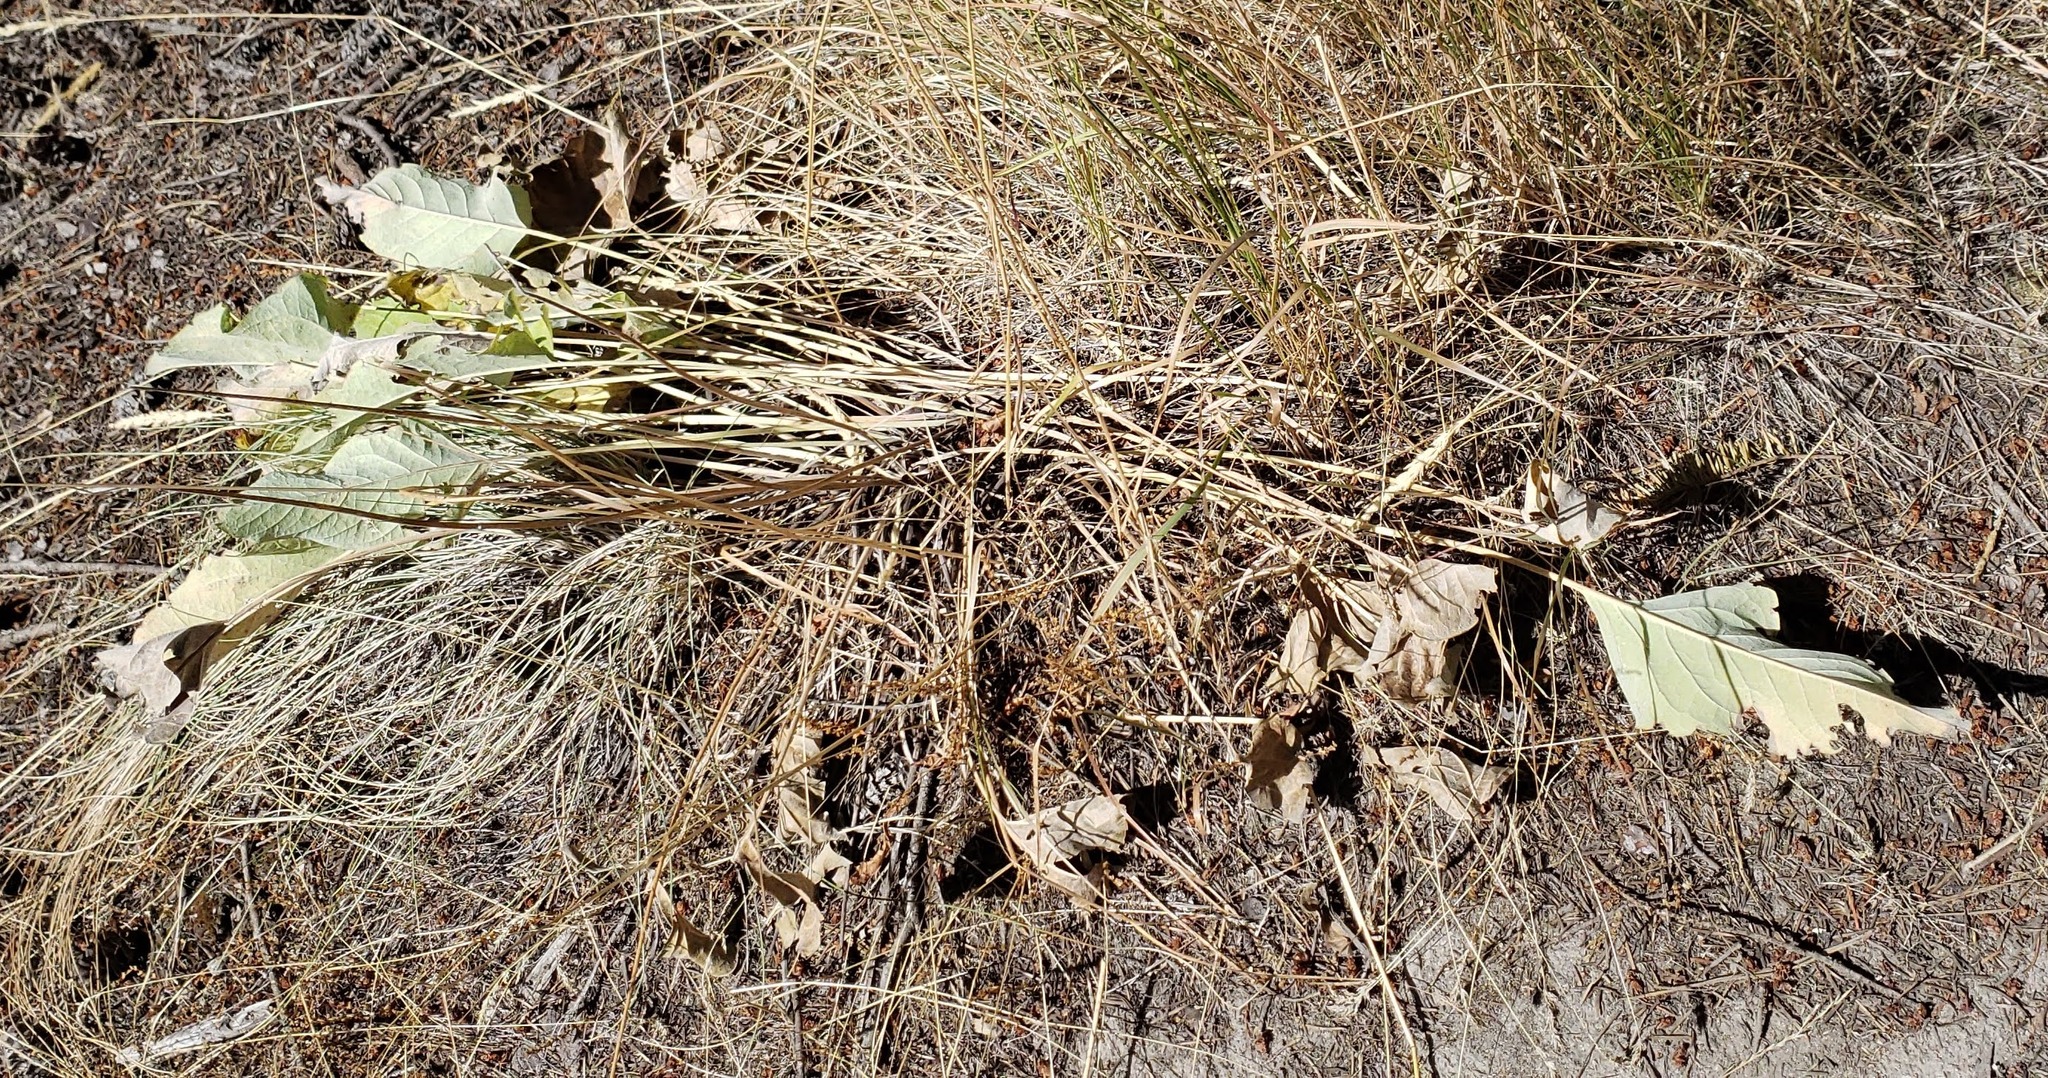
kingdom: Plantae
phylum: Tracheophyta
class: Magnoliopsida
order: Asterales
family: Asteraceae
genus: Wyethia
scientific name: Wyethia sagittata
